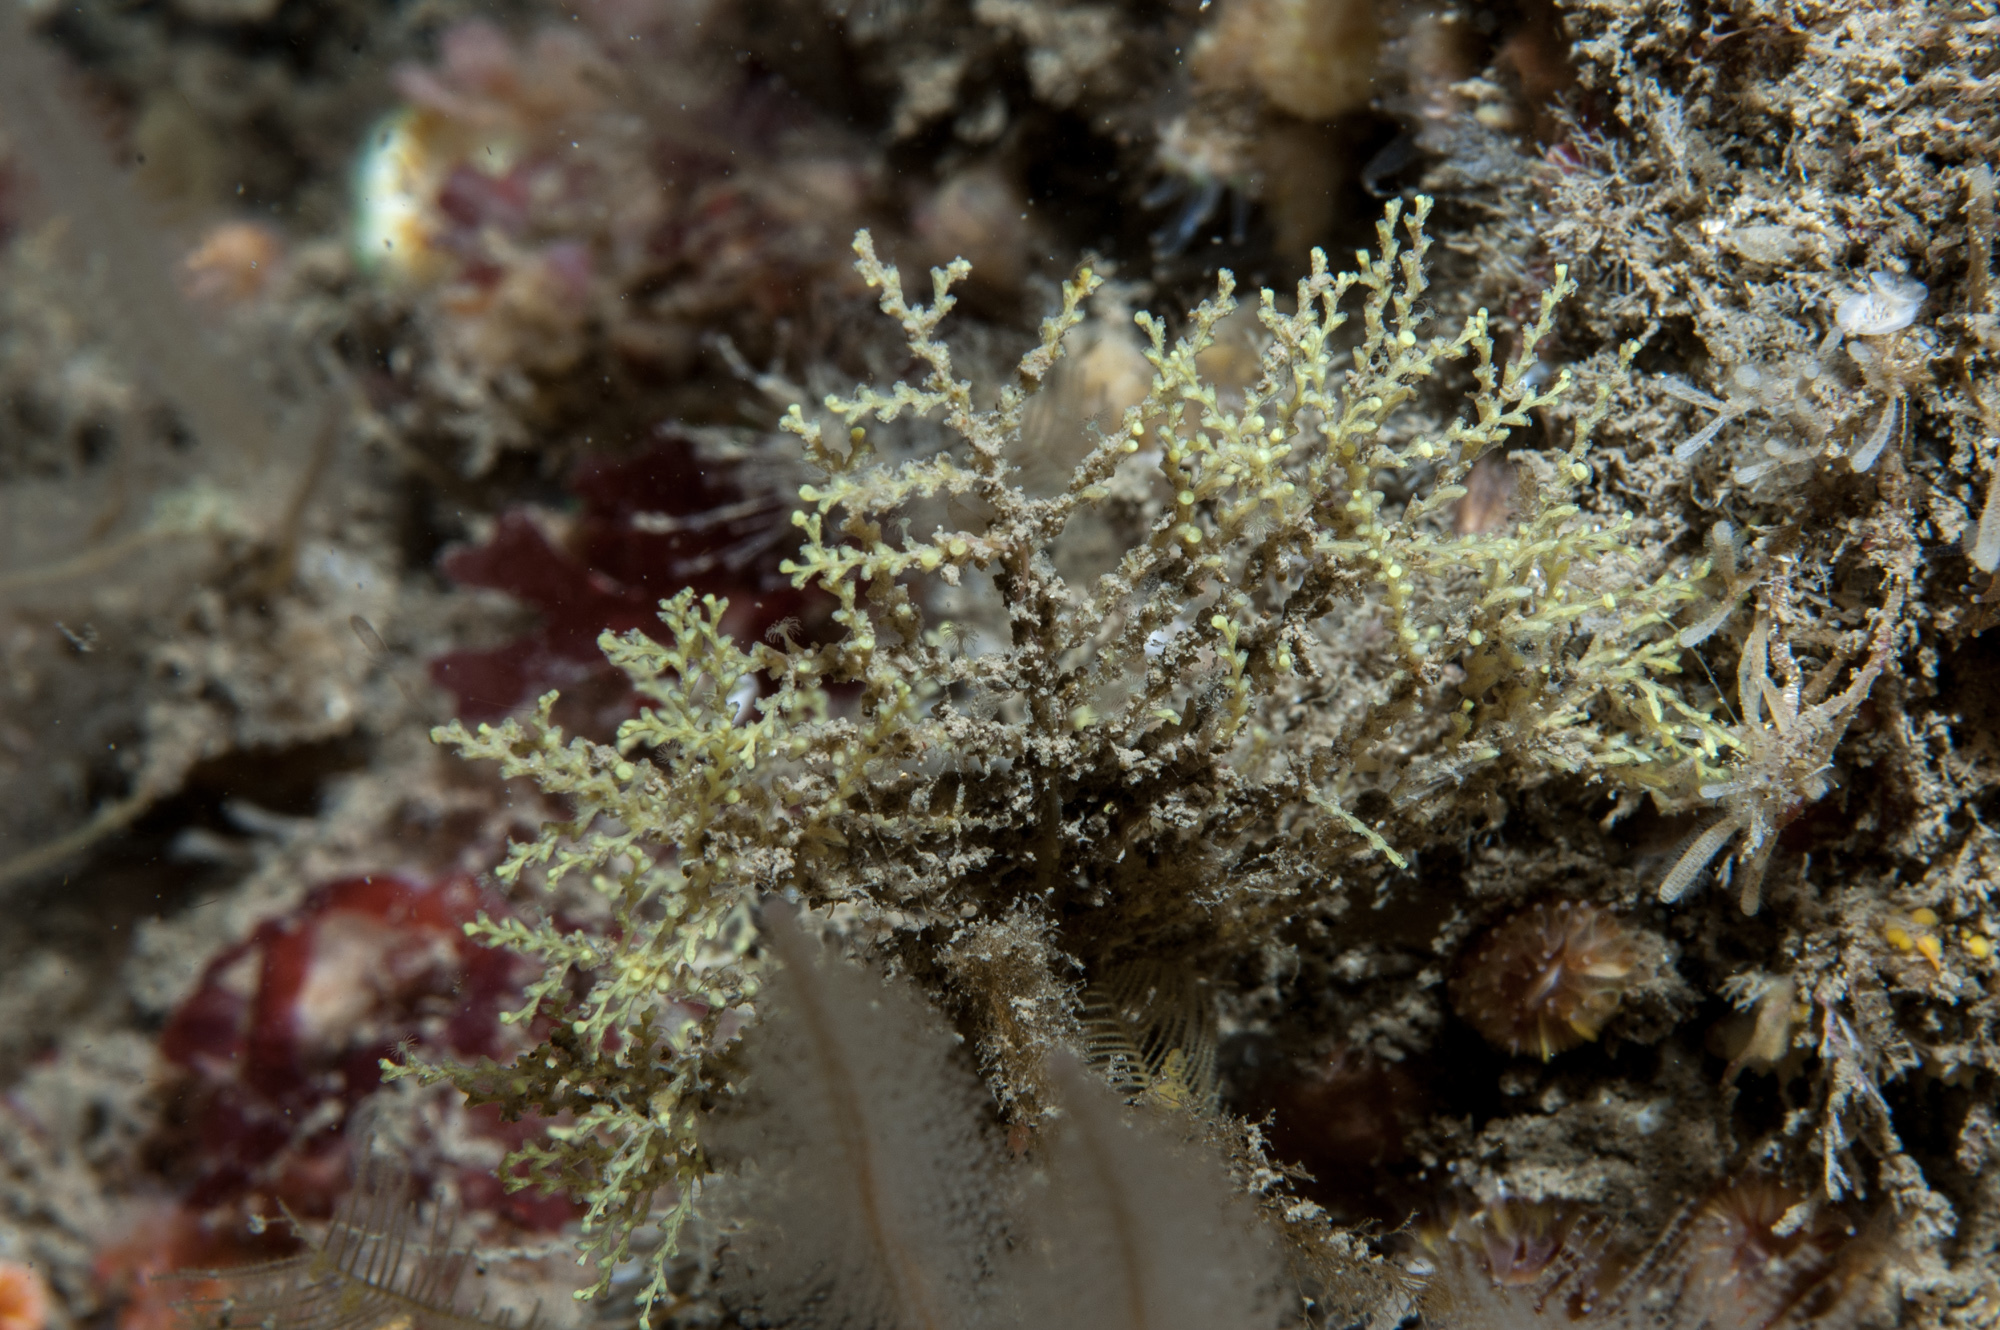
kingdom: Animalia
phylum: Cnidaria
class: Hydrozoa
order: Leptothecata
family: Sertularellidae
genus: Sertularella
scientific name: Sertularella gayi
